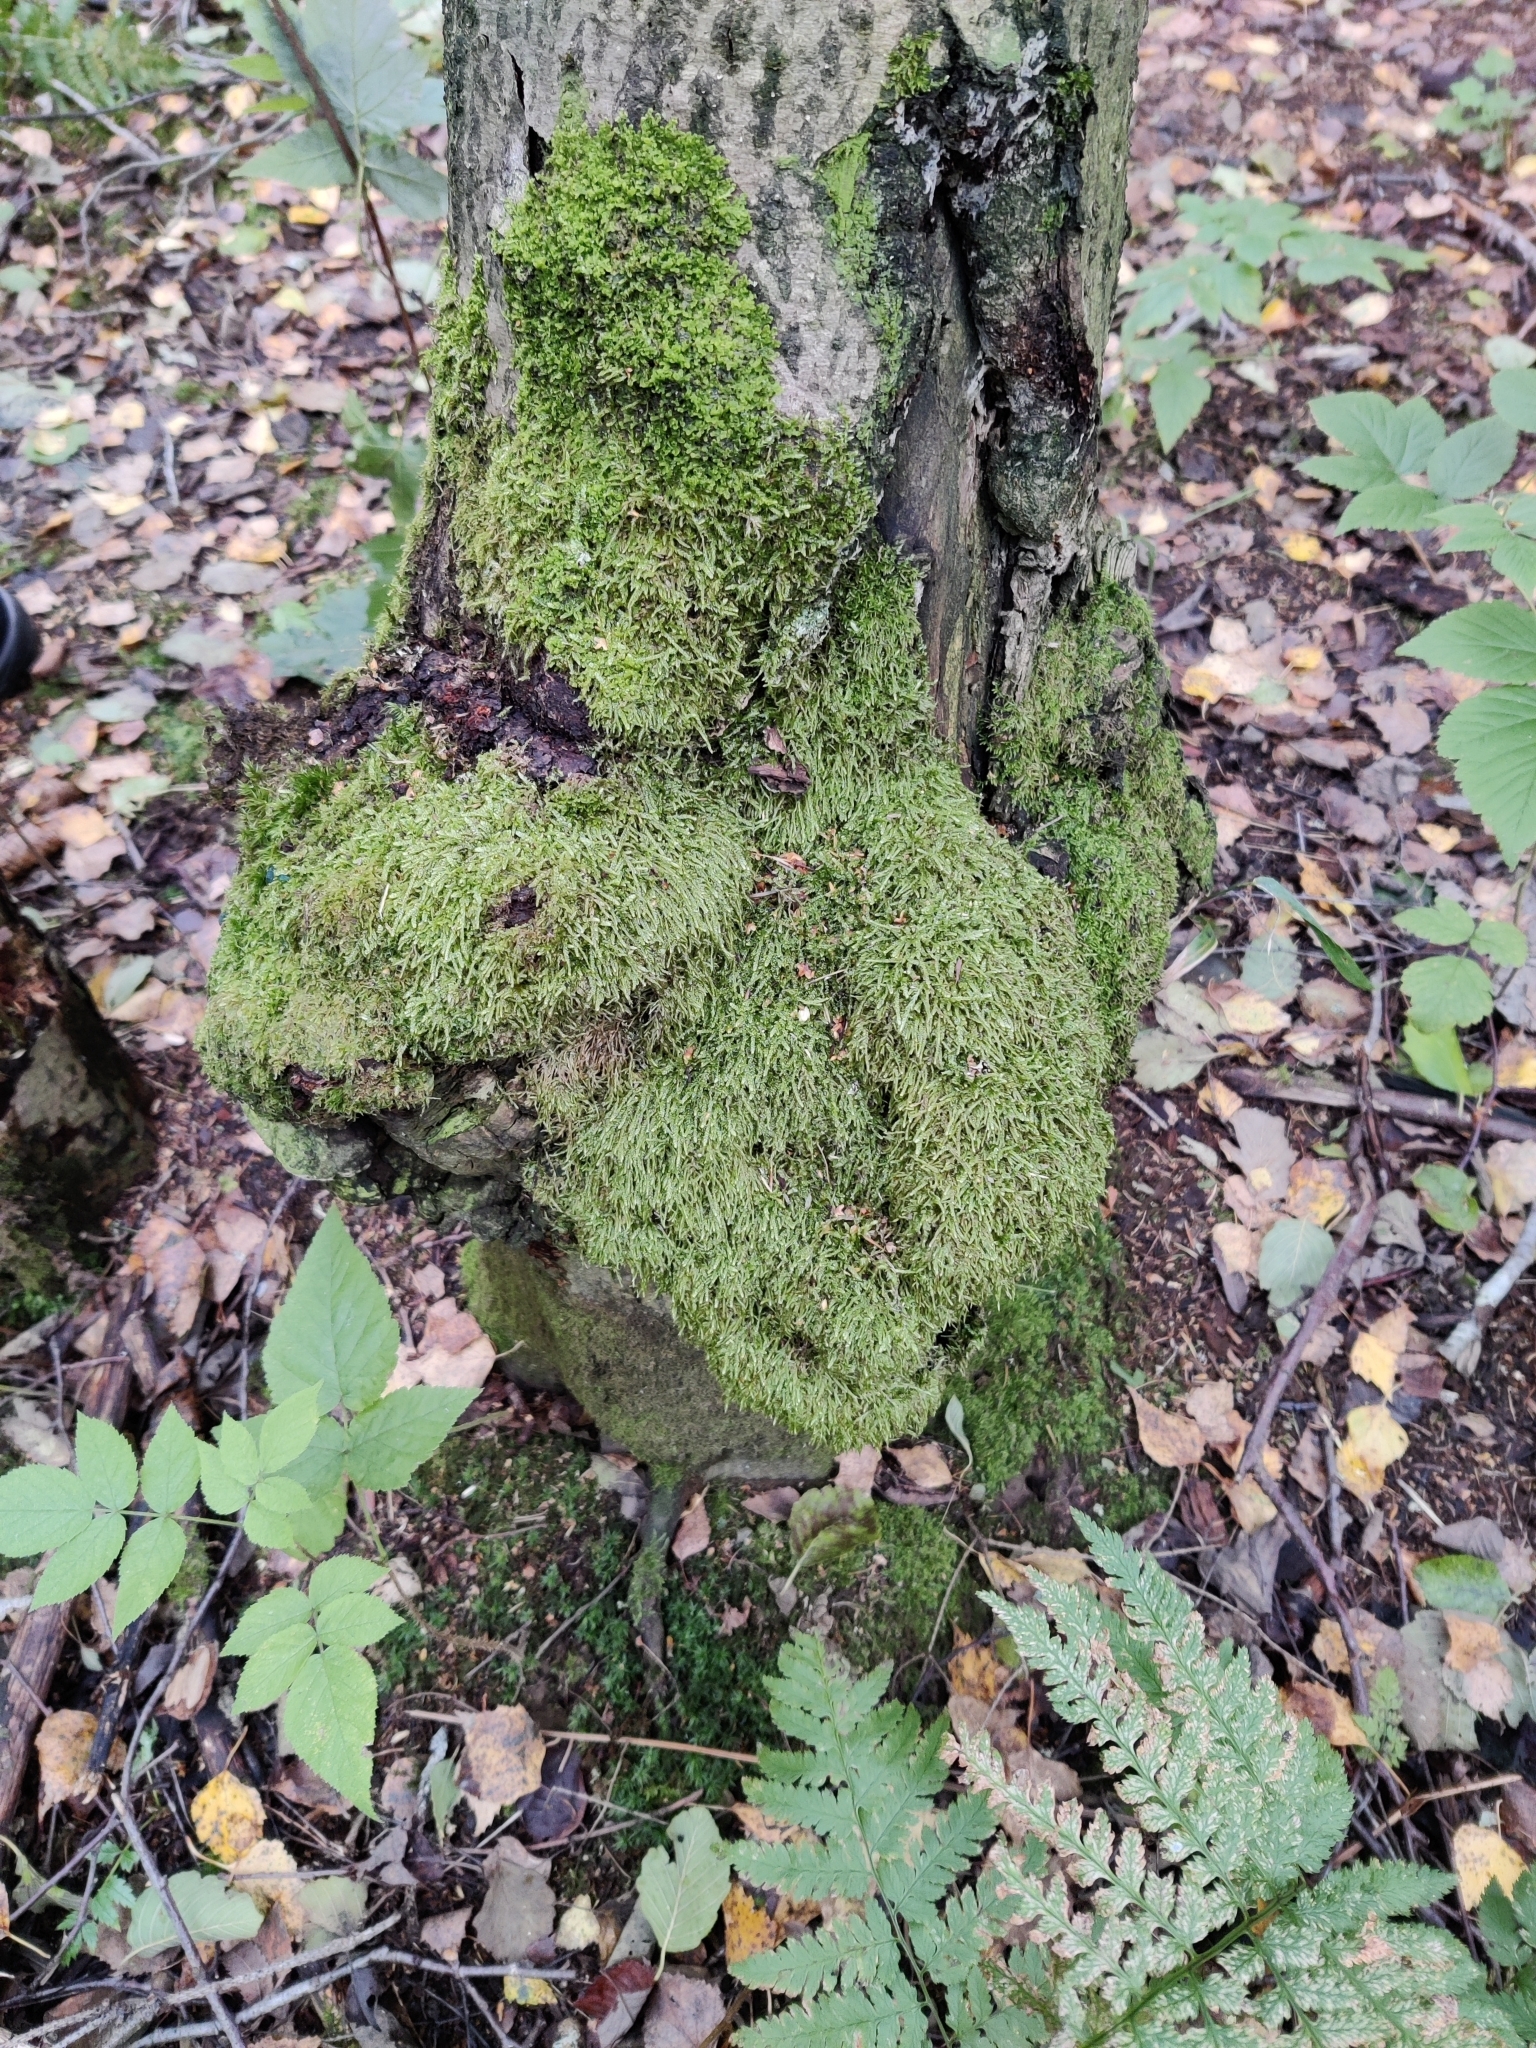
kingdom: Bacteria
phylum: Proteobacteria
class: Alphaproteobacteria
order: Rhizobiales
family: Rhizobiaceae
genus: Rhizobium
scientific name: Rhizobium Agrobacterium radiobacter
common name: Bacterial crown gall
